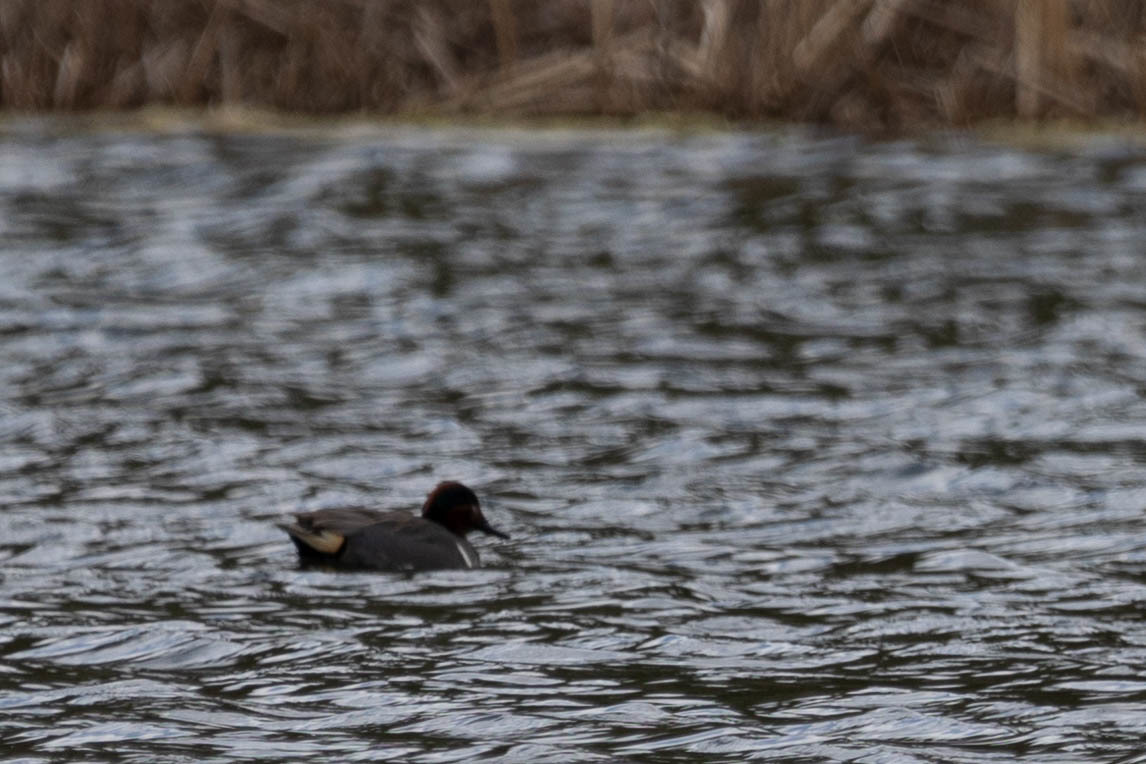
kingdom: Animalia
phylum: Chordata
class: Aves
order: Anseriformes
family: Anatidae
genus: Anas
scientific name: Anas crecca
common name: Eurasian teal
